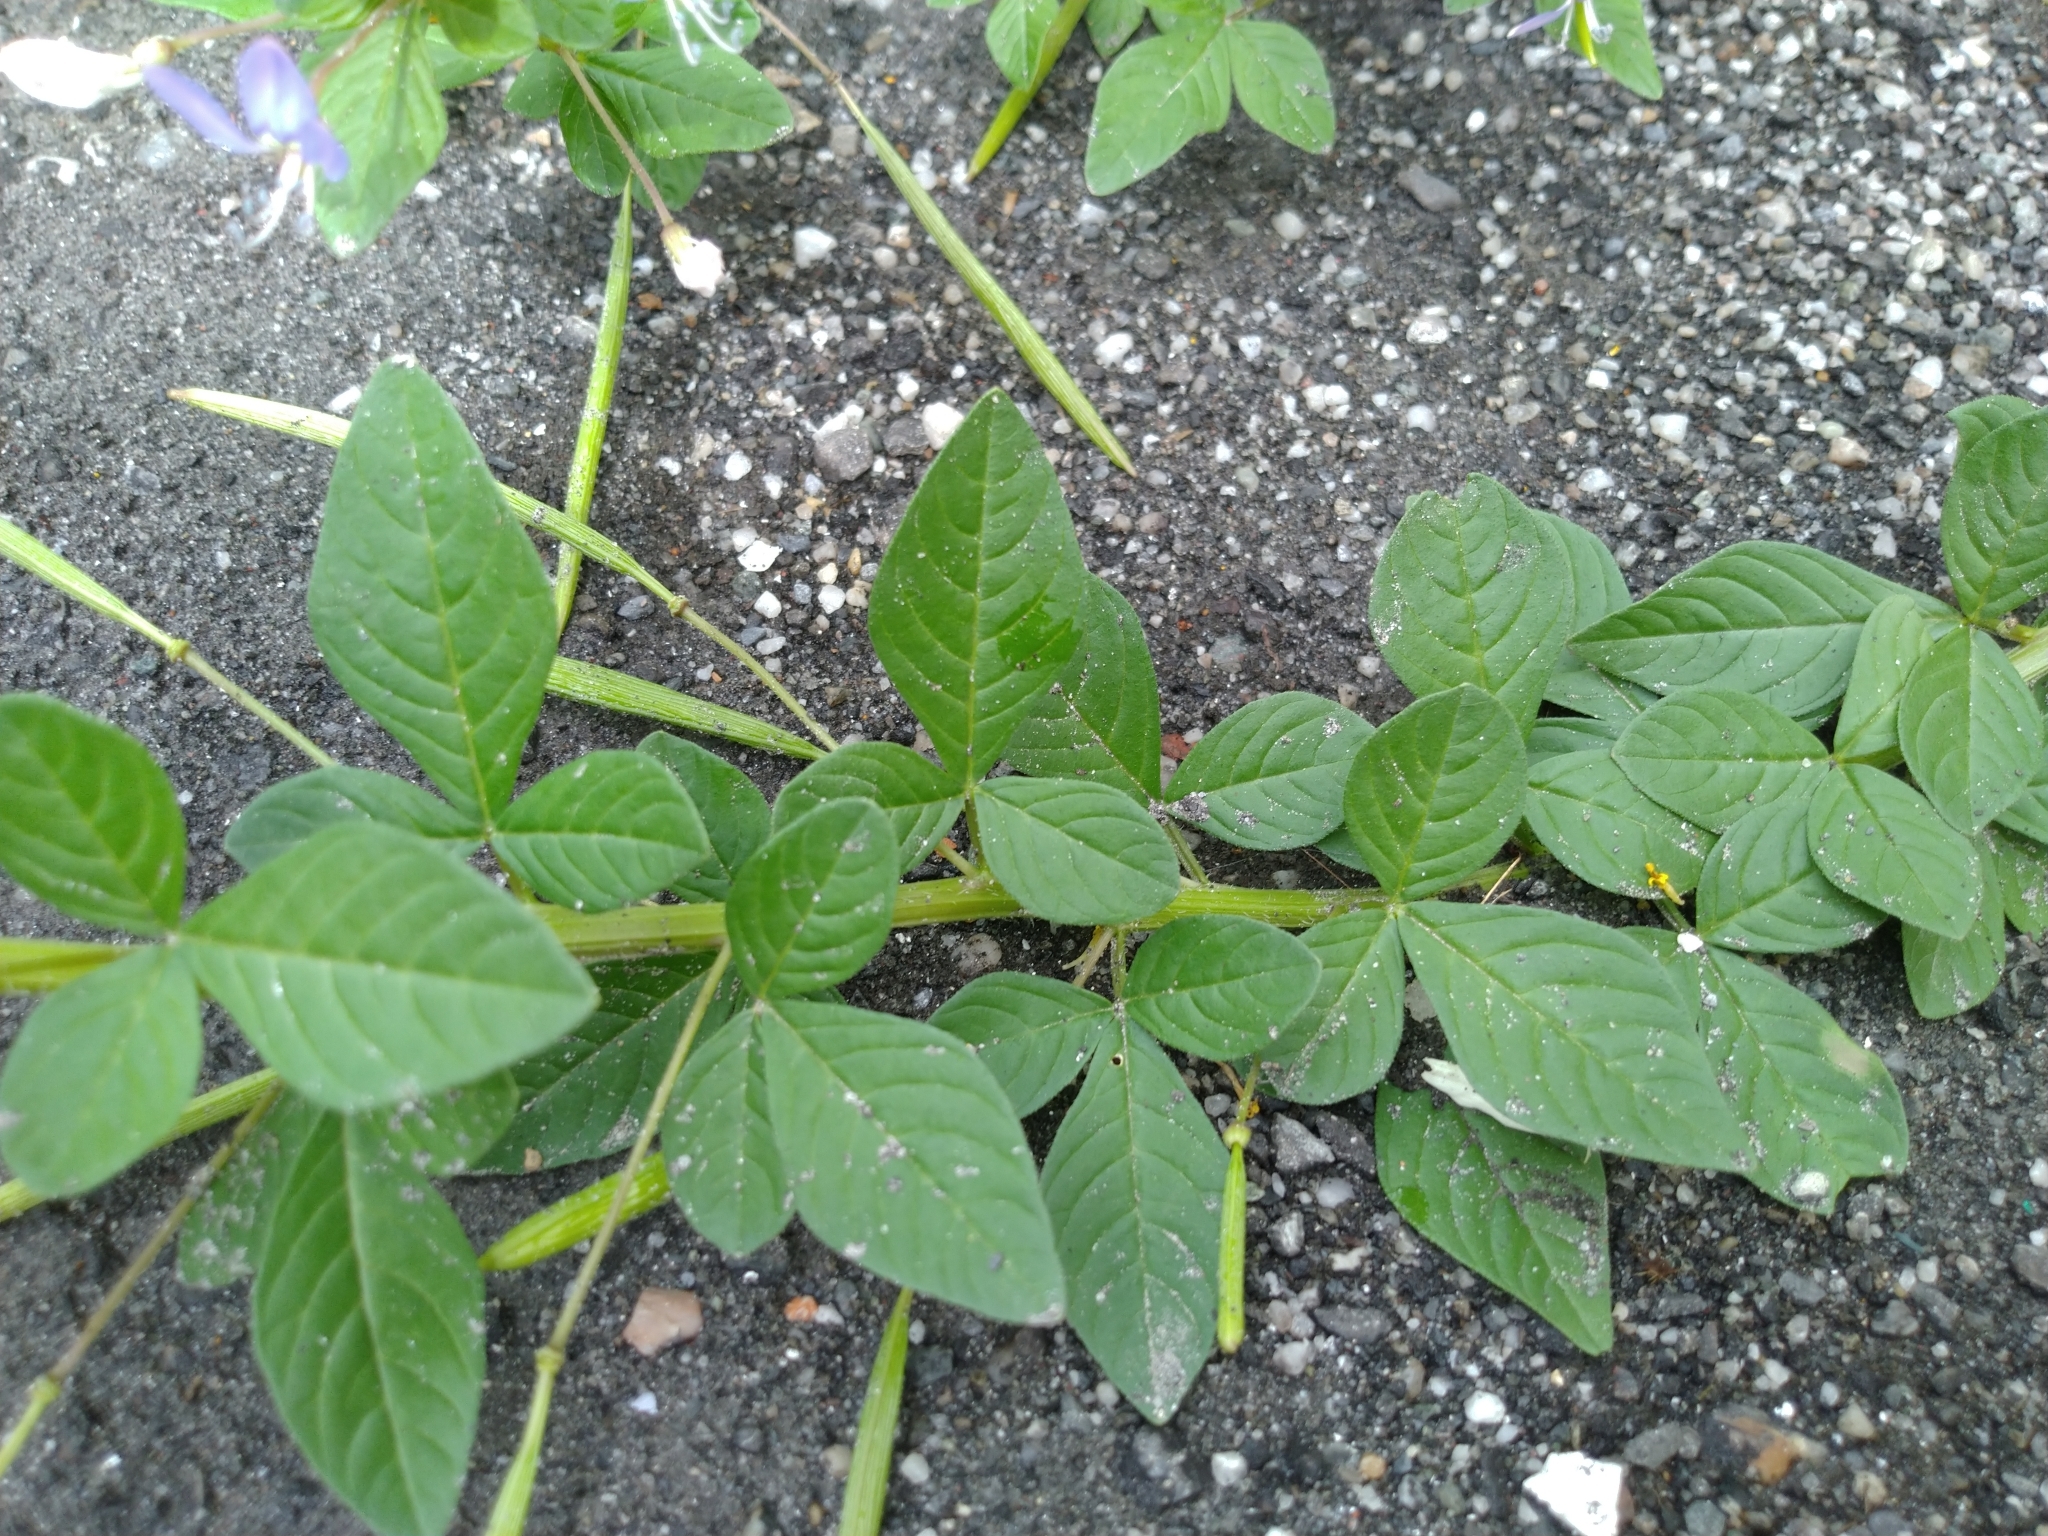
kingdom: Plantae
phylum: Tracheophyta
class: Magnoliopsida
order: Brassicales
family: Cleomaceae
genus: Sieruela
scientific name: Sieruela rutidosperma
